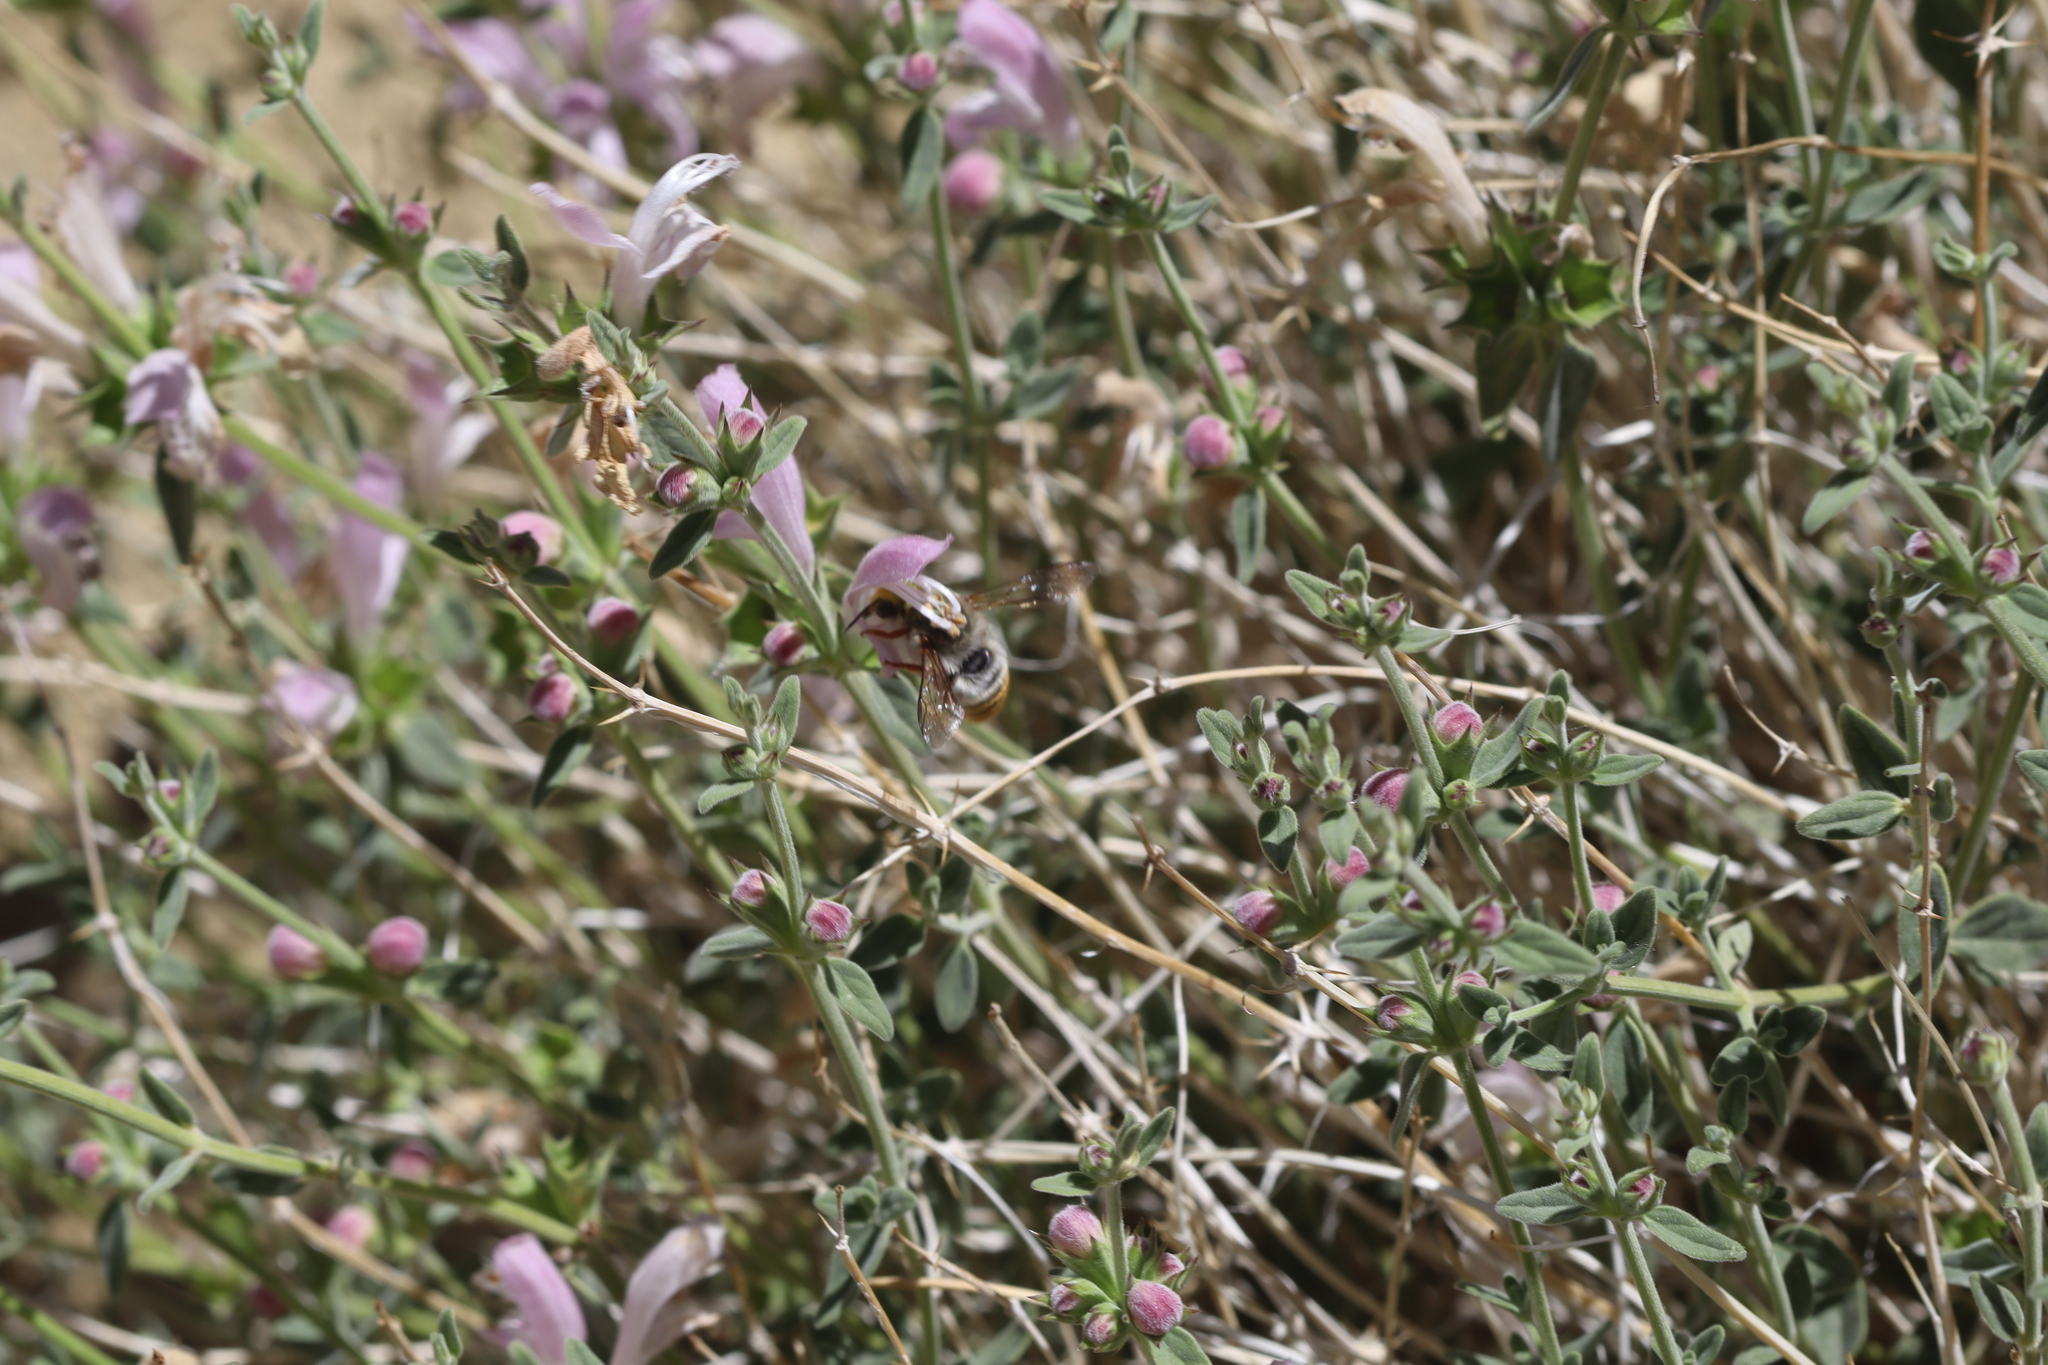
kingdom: Animalia
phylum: Arthropoda
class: Insecta
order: Hymenoptera
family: Megachilidae
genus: Megachile
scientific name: Megachile
